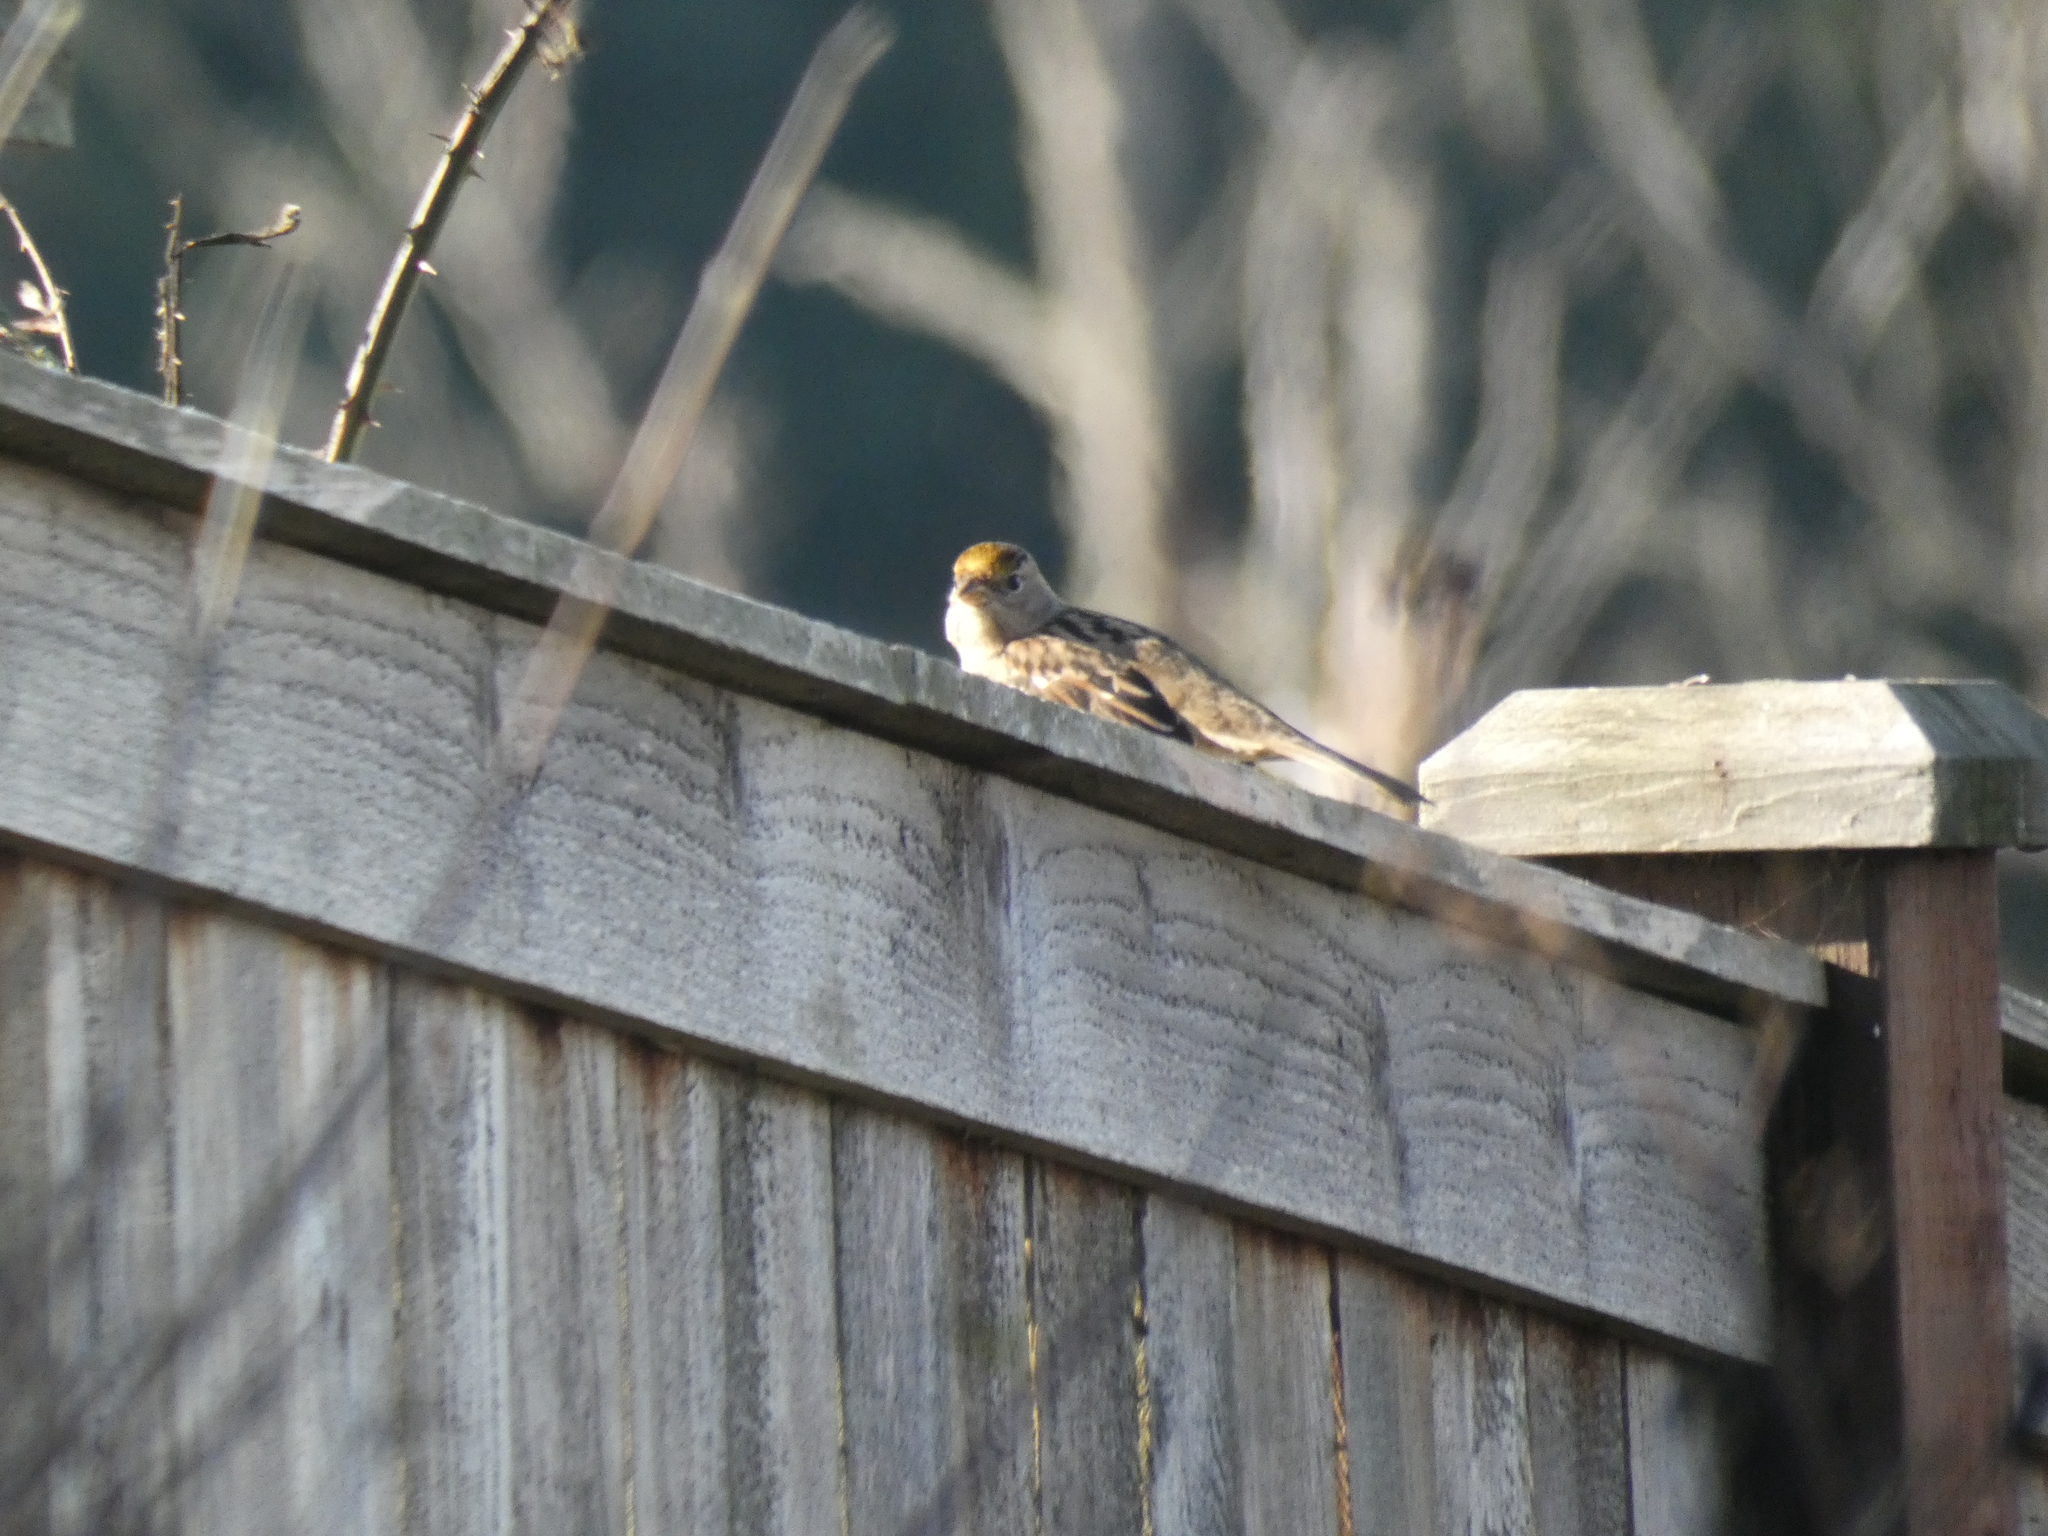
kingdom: Animalia
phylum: Chordata
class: Aves
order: Passeriformes
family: Passerellidae
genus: Zonotrichia
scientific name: Zonotrichia atricapilla
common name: Golden-crowned sparrow
